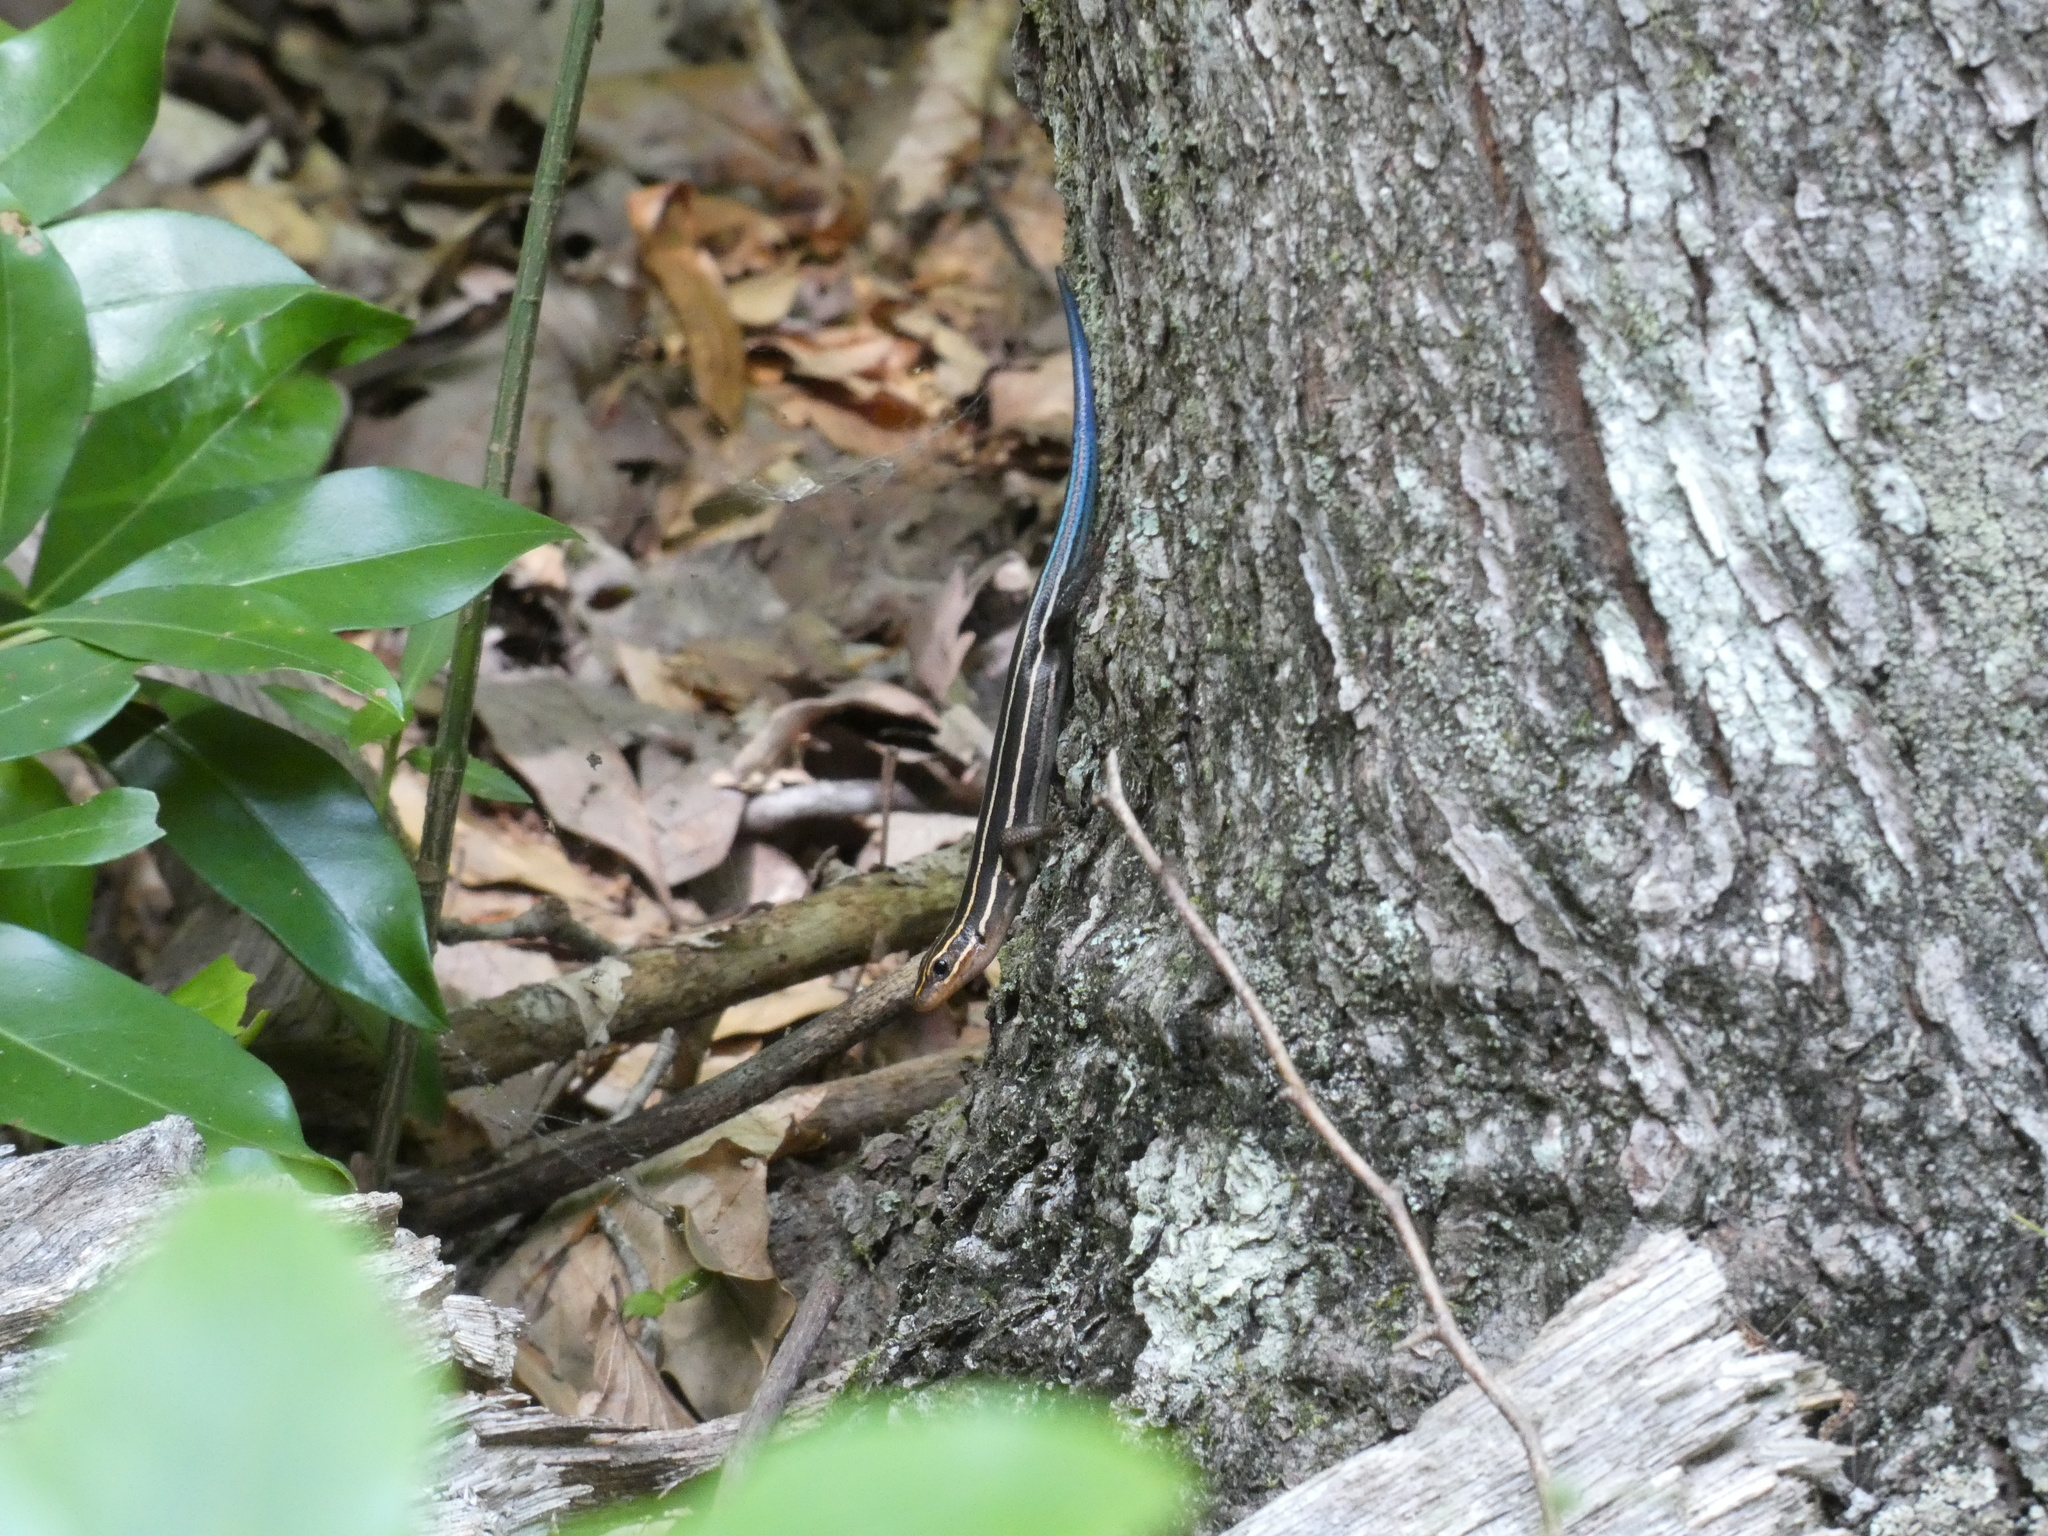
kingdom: Animalia
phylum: Chordata
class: Squamata
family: Scincidae
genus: Plestiodon
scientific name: Plestiodon laticeps
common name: Broadhead skink
